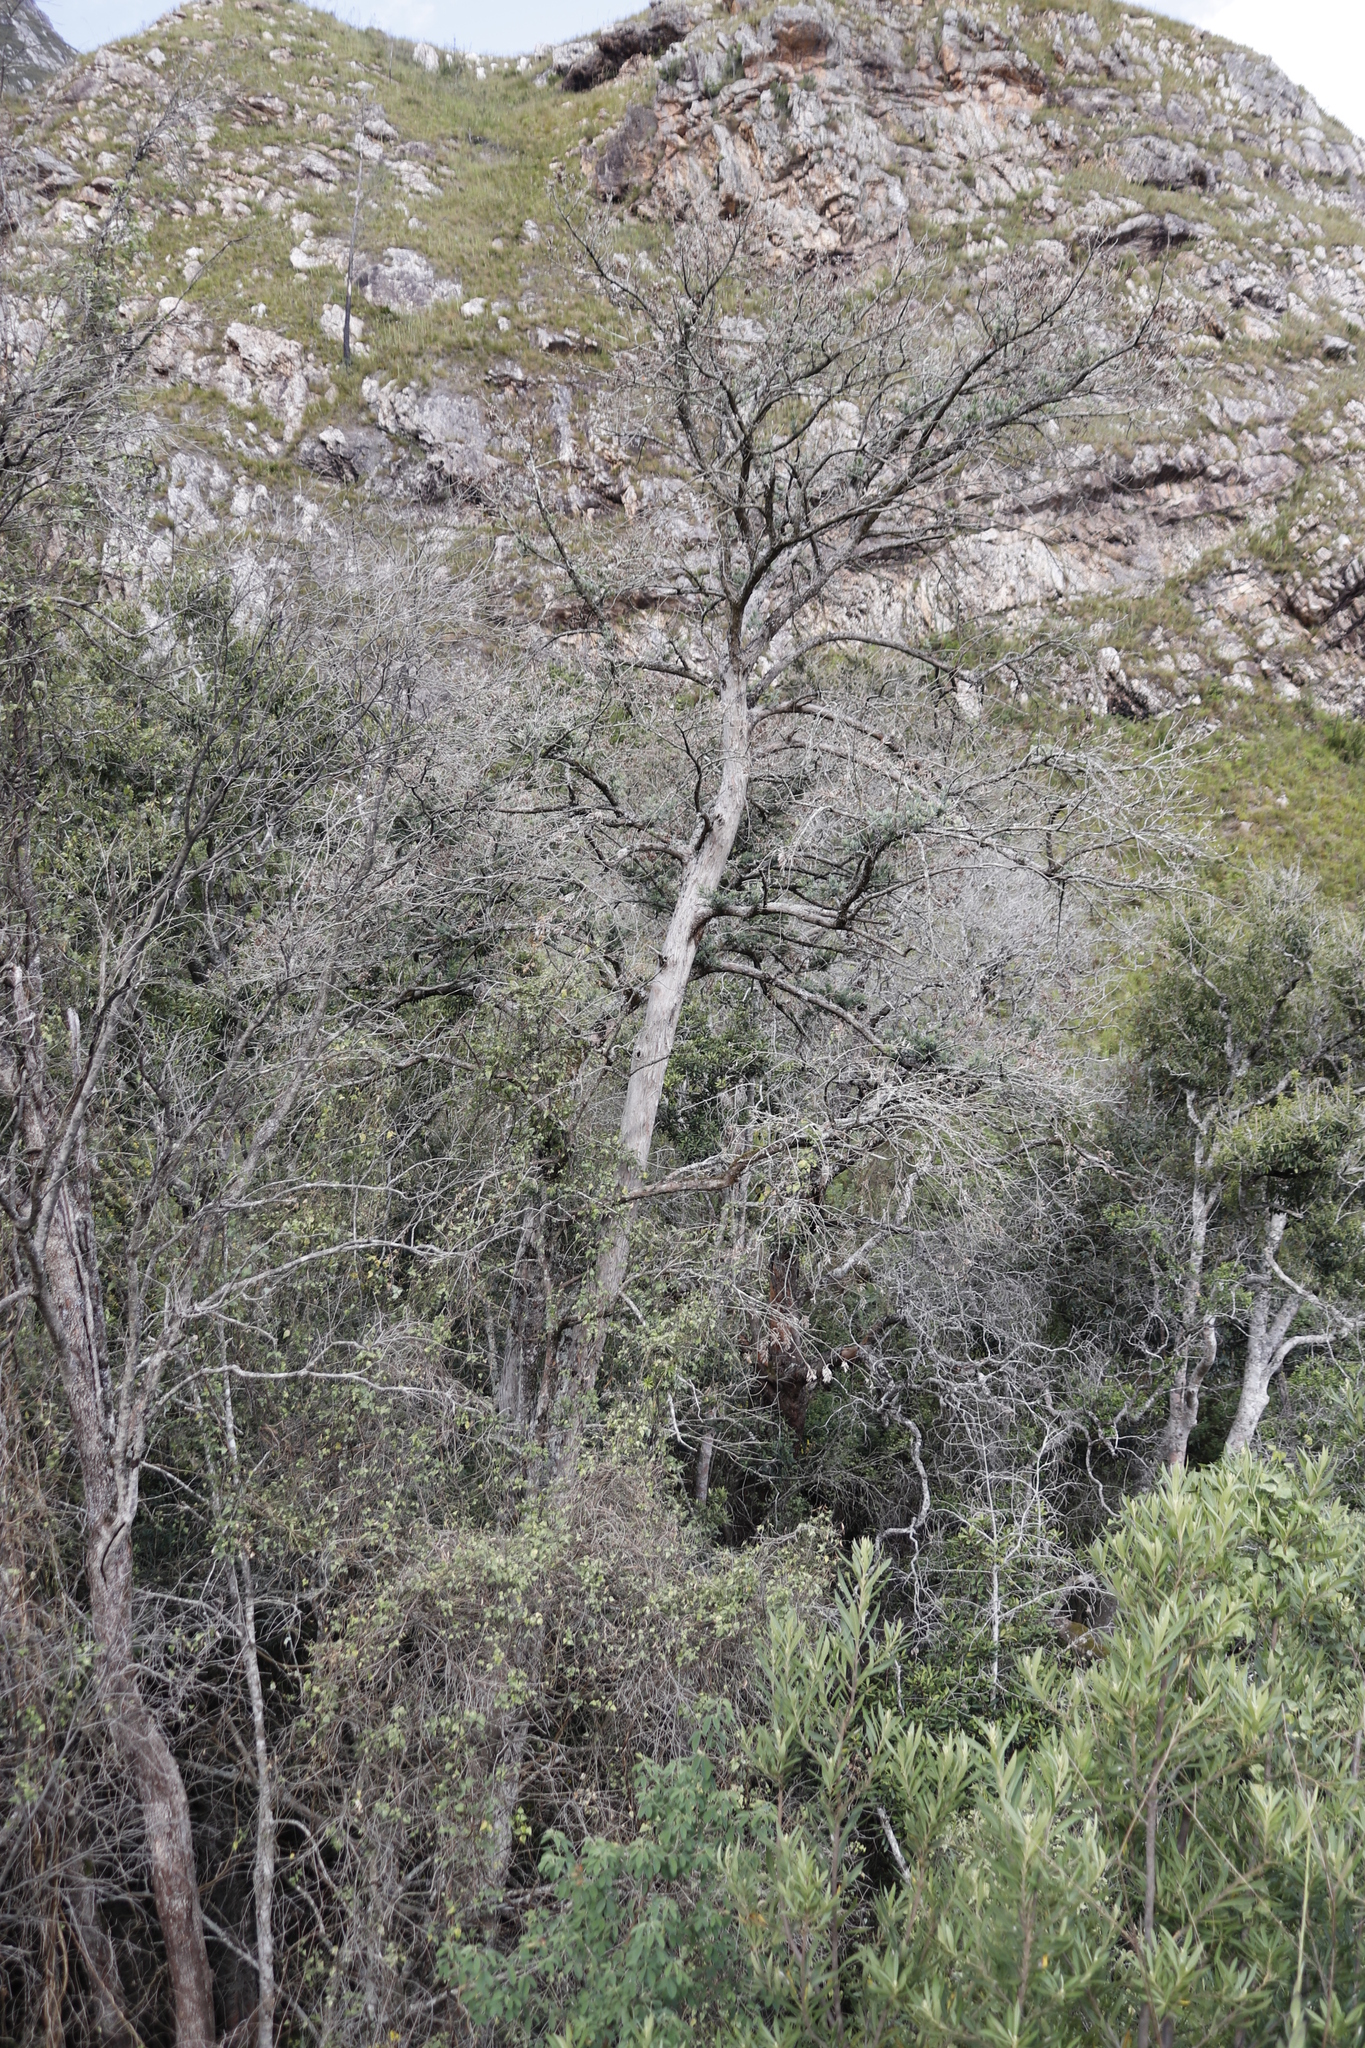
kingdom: Plantae
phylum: Tracheophyta
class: Pinopsida
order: Pinales
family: Podocarpaceae
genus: Podocarpus
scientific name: Podocarpus latifolius
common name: True yellowwood
